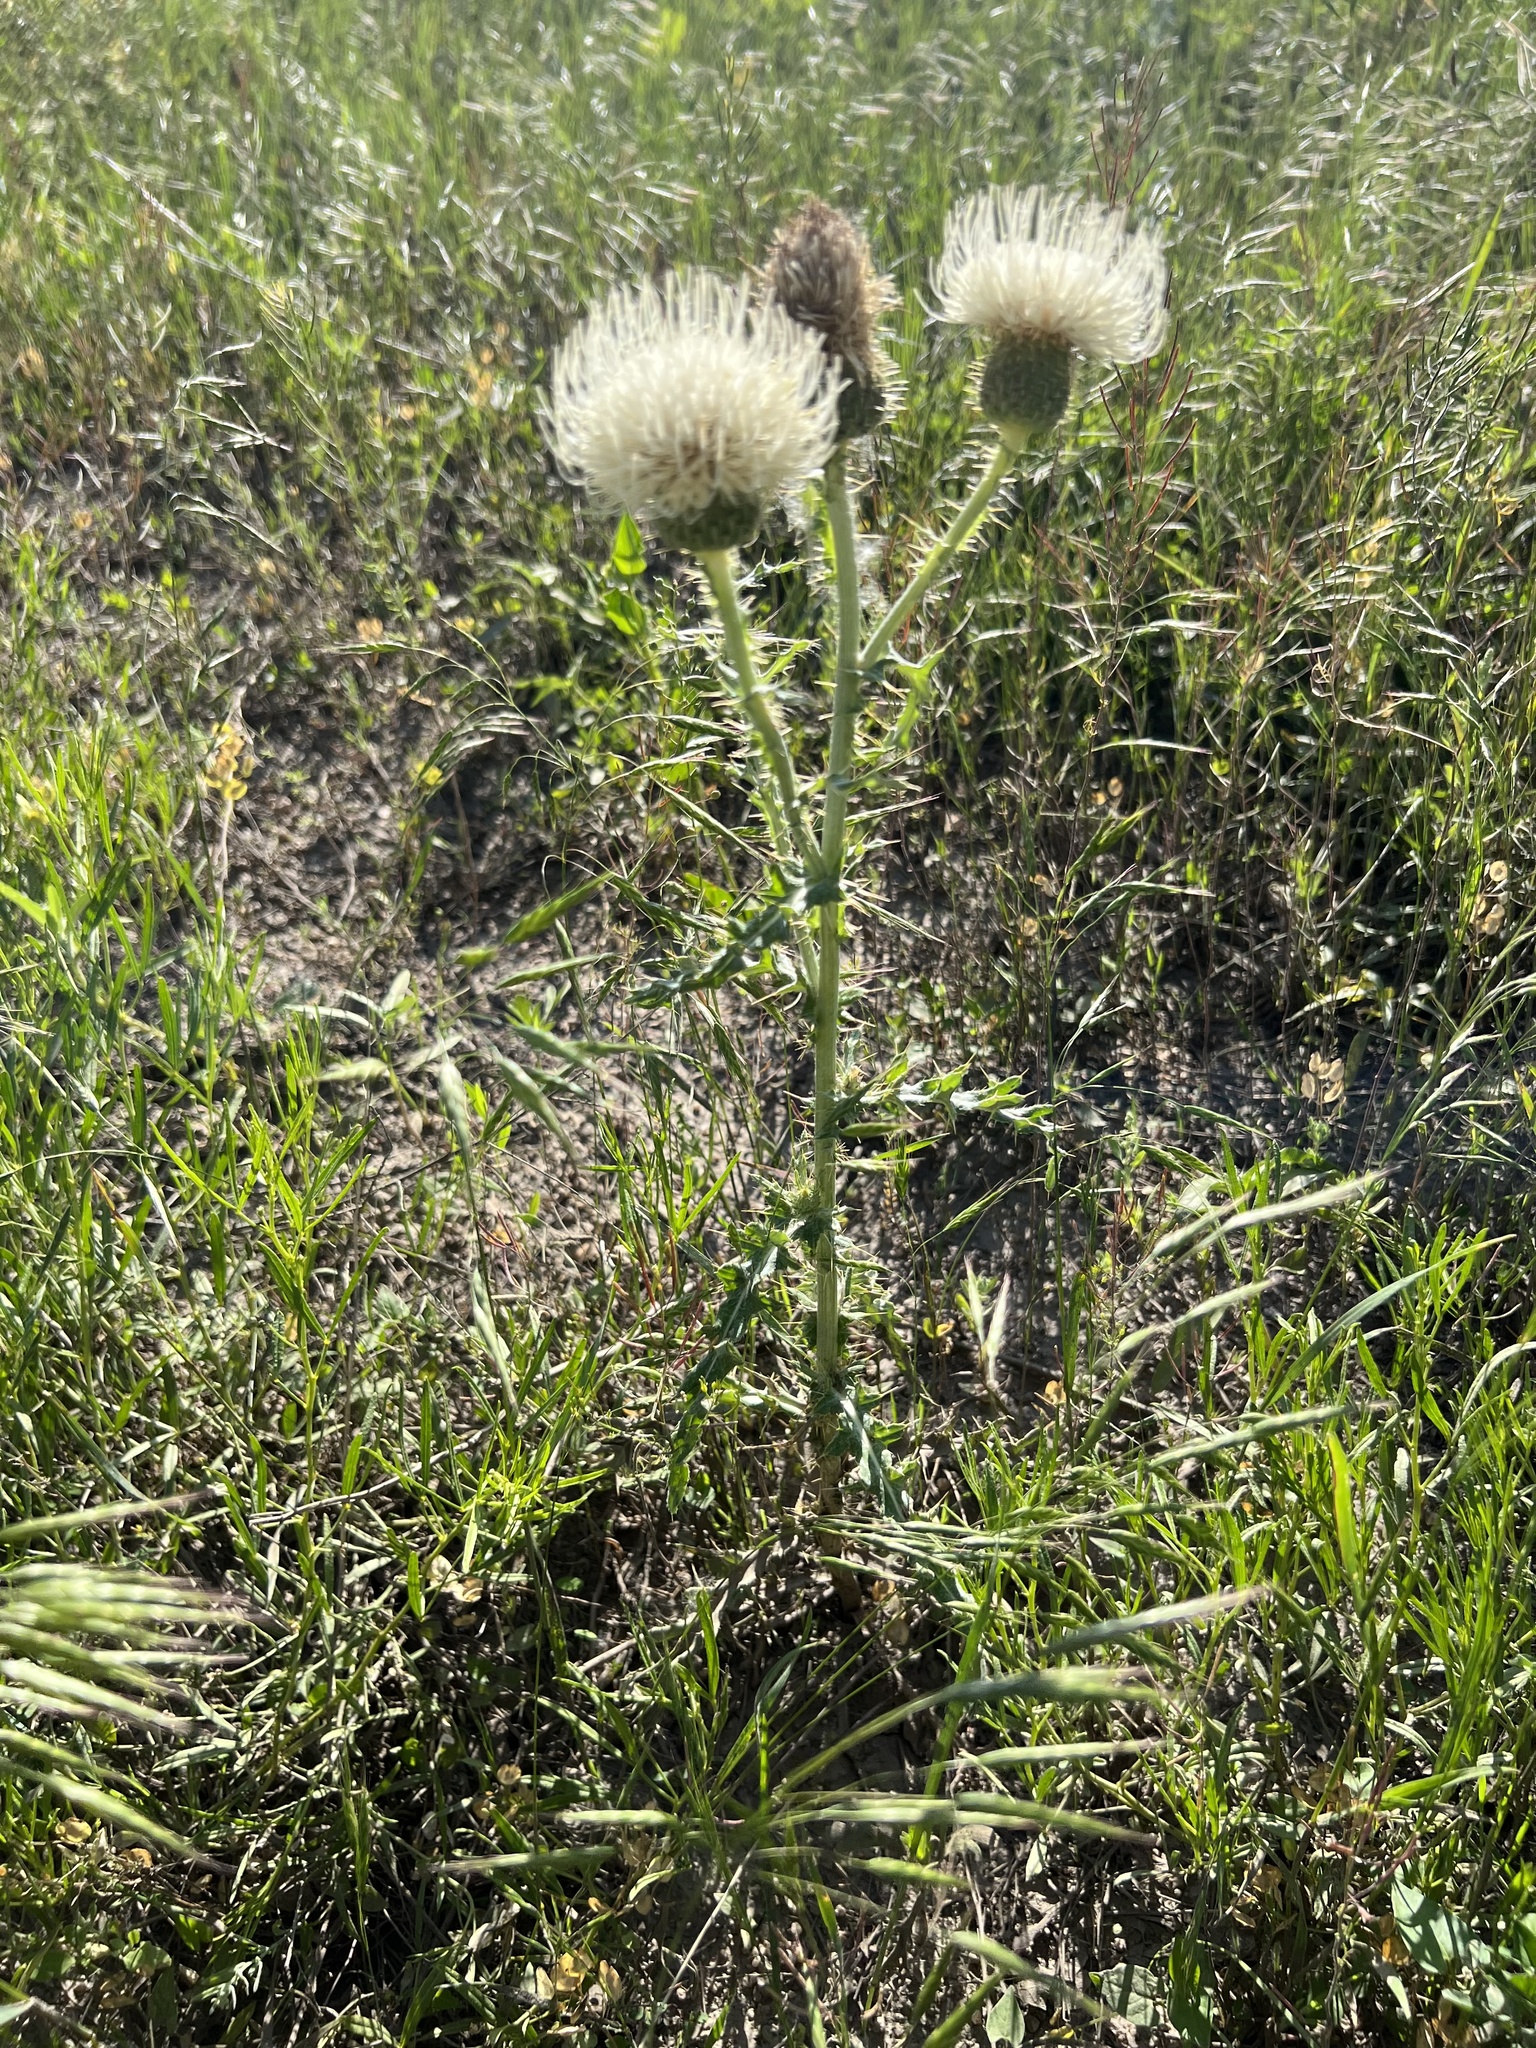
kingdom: Plantae
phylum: Tracheophyta
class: Magnoliopsida
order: Asterales
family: Asteraceae
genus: Cirsium
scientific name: Cirsium canescens
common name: Prairie thistle
